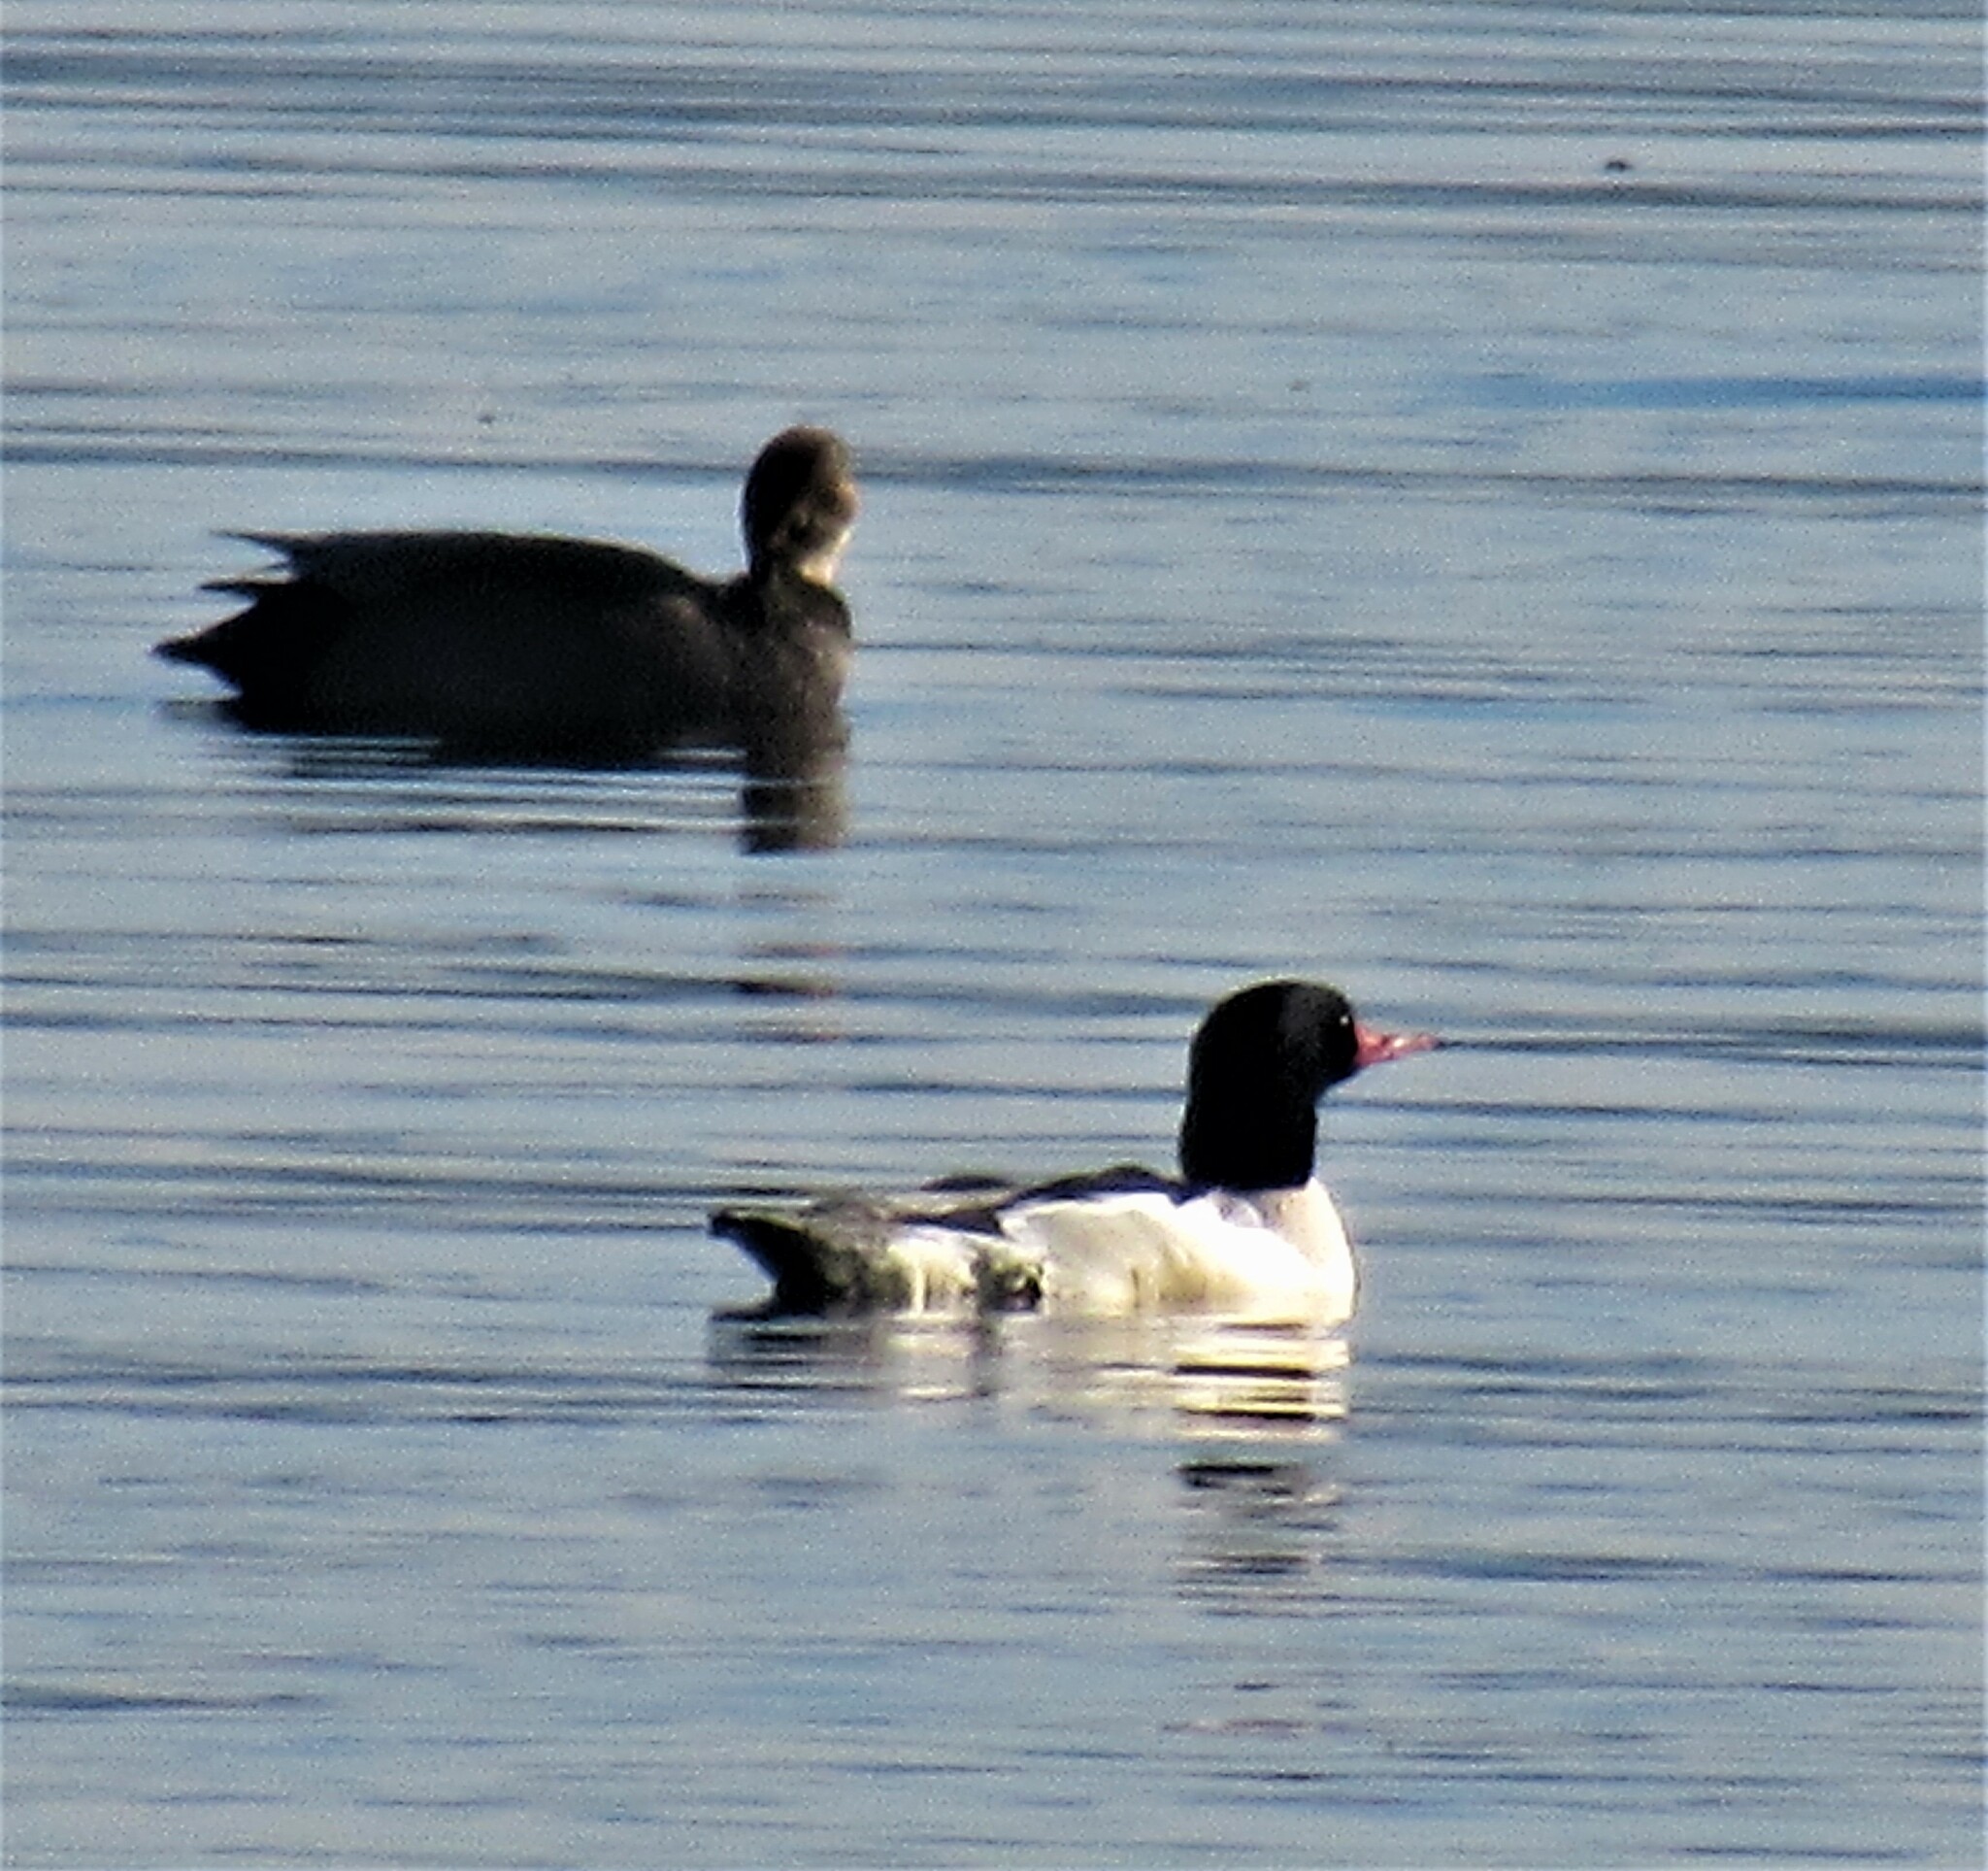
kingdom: Animalia
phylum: Chordata
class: Aves
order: Anseriformes
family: Anatidae
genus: Mergus
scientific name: Mergus merganser
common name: Common merganser
